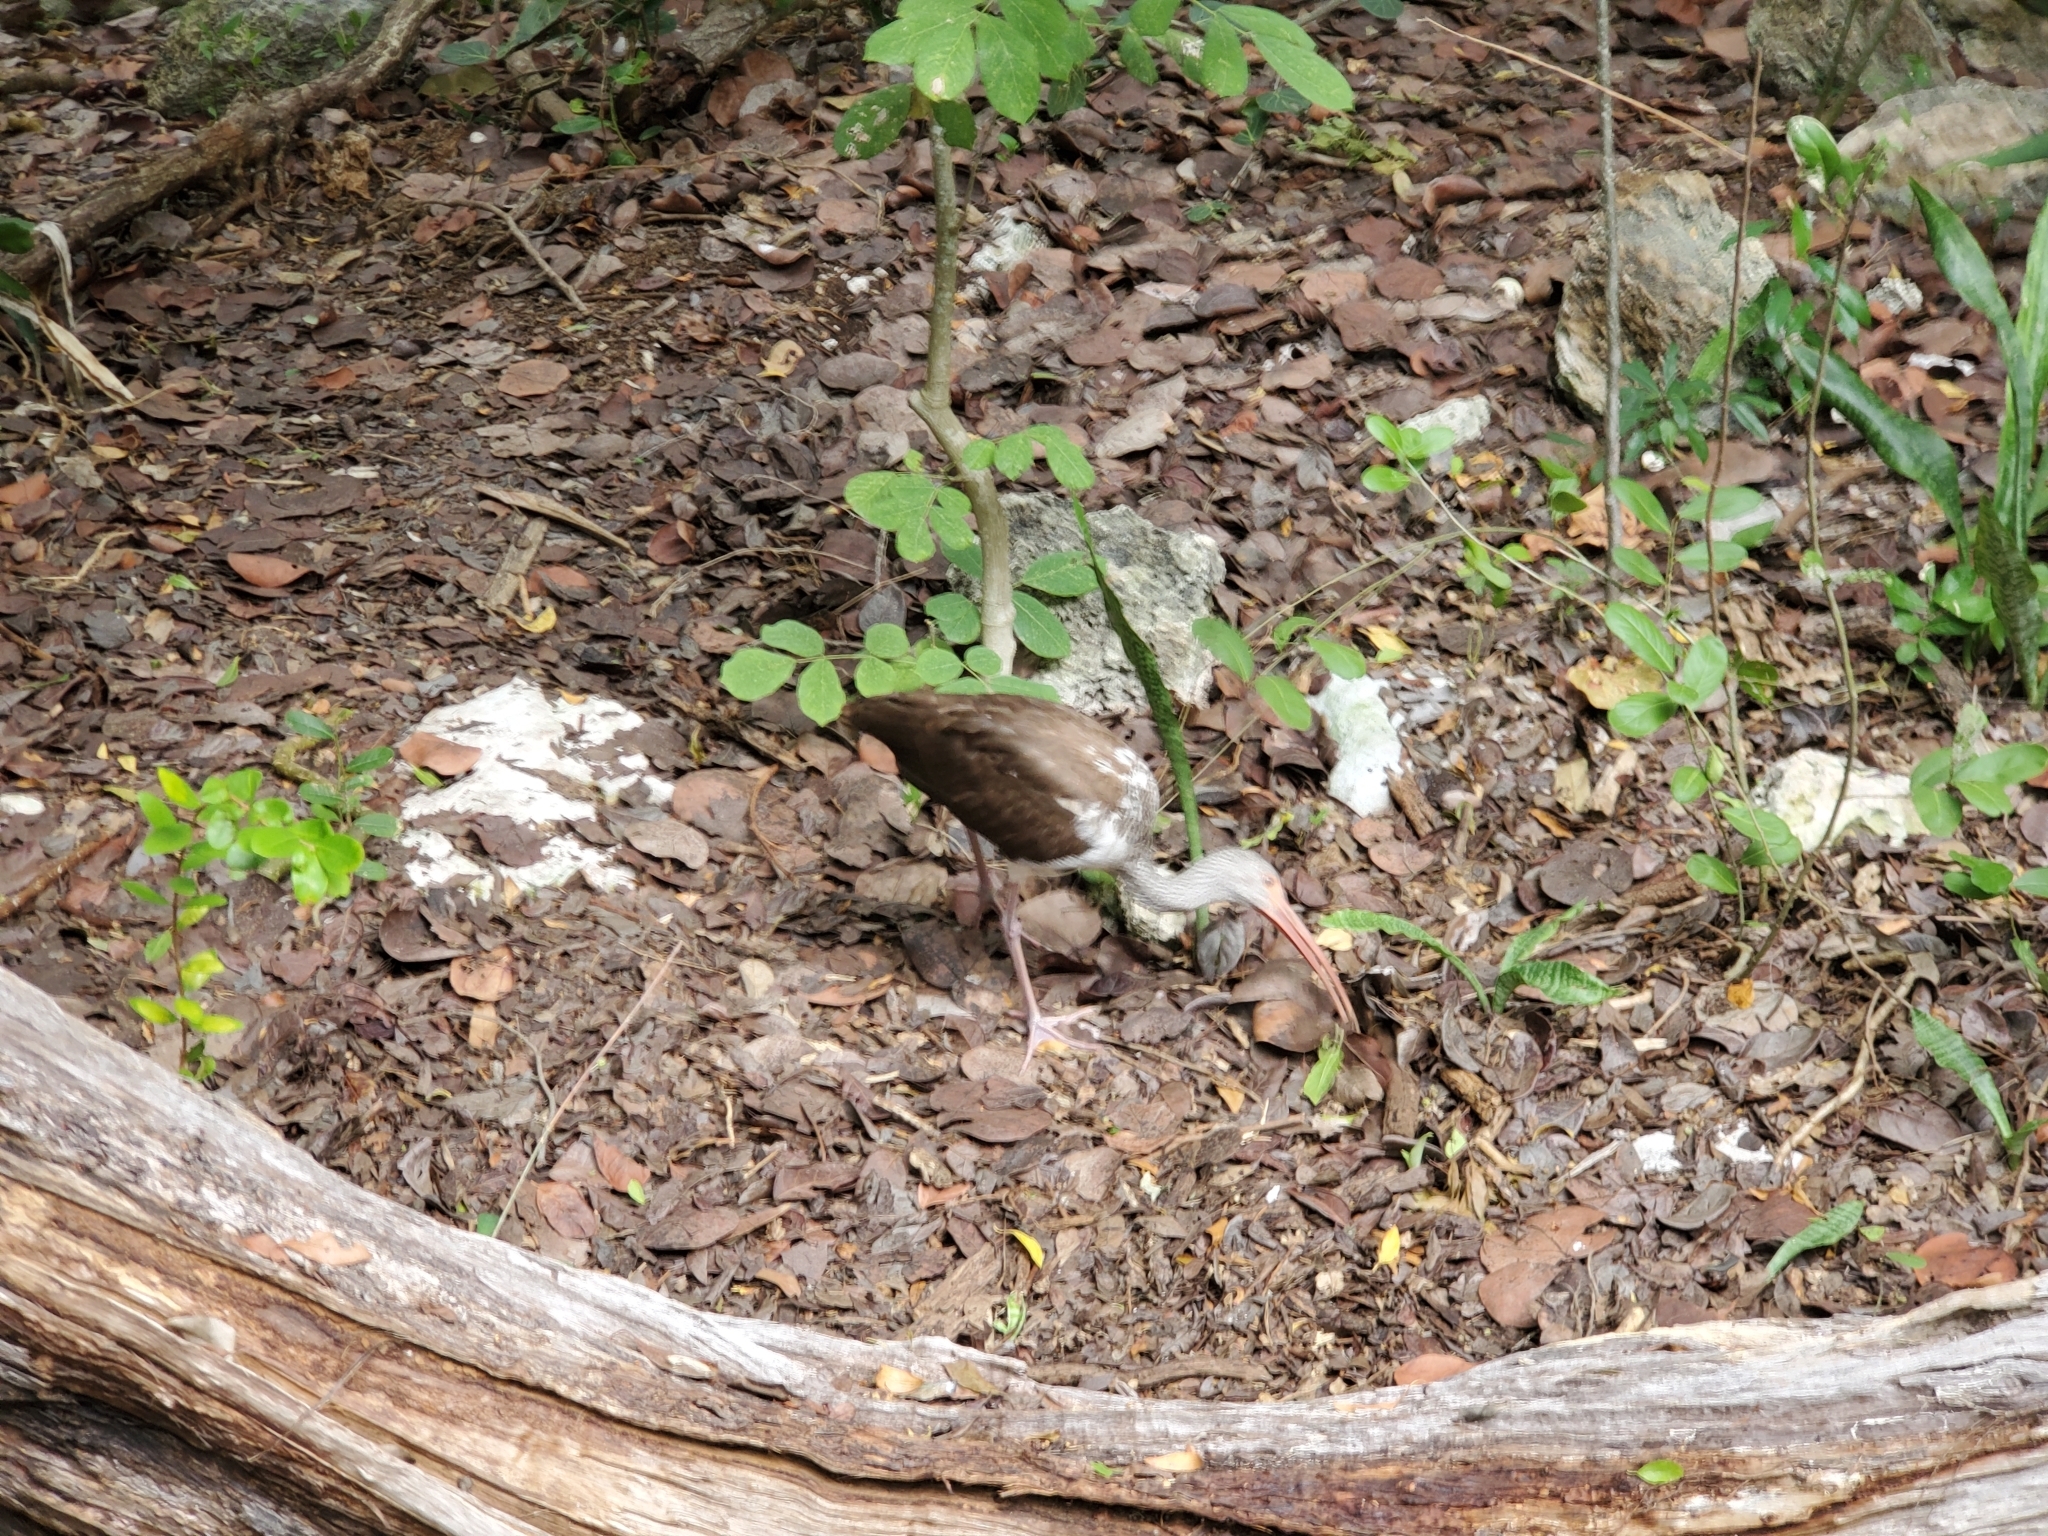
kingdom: Animalia
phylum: Chordata
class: Aves
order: Pelecaniformes
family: Threskiornithidae
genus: Eudocimus
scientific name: Eudocimus albus
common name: White ibis
